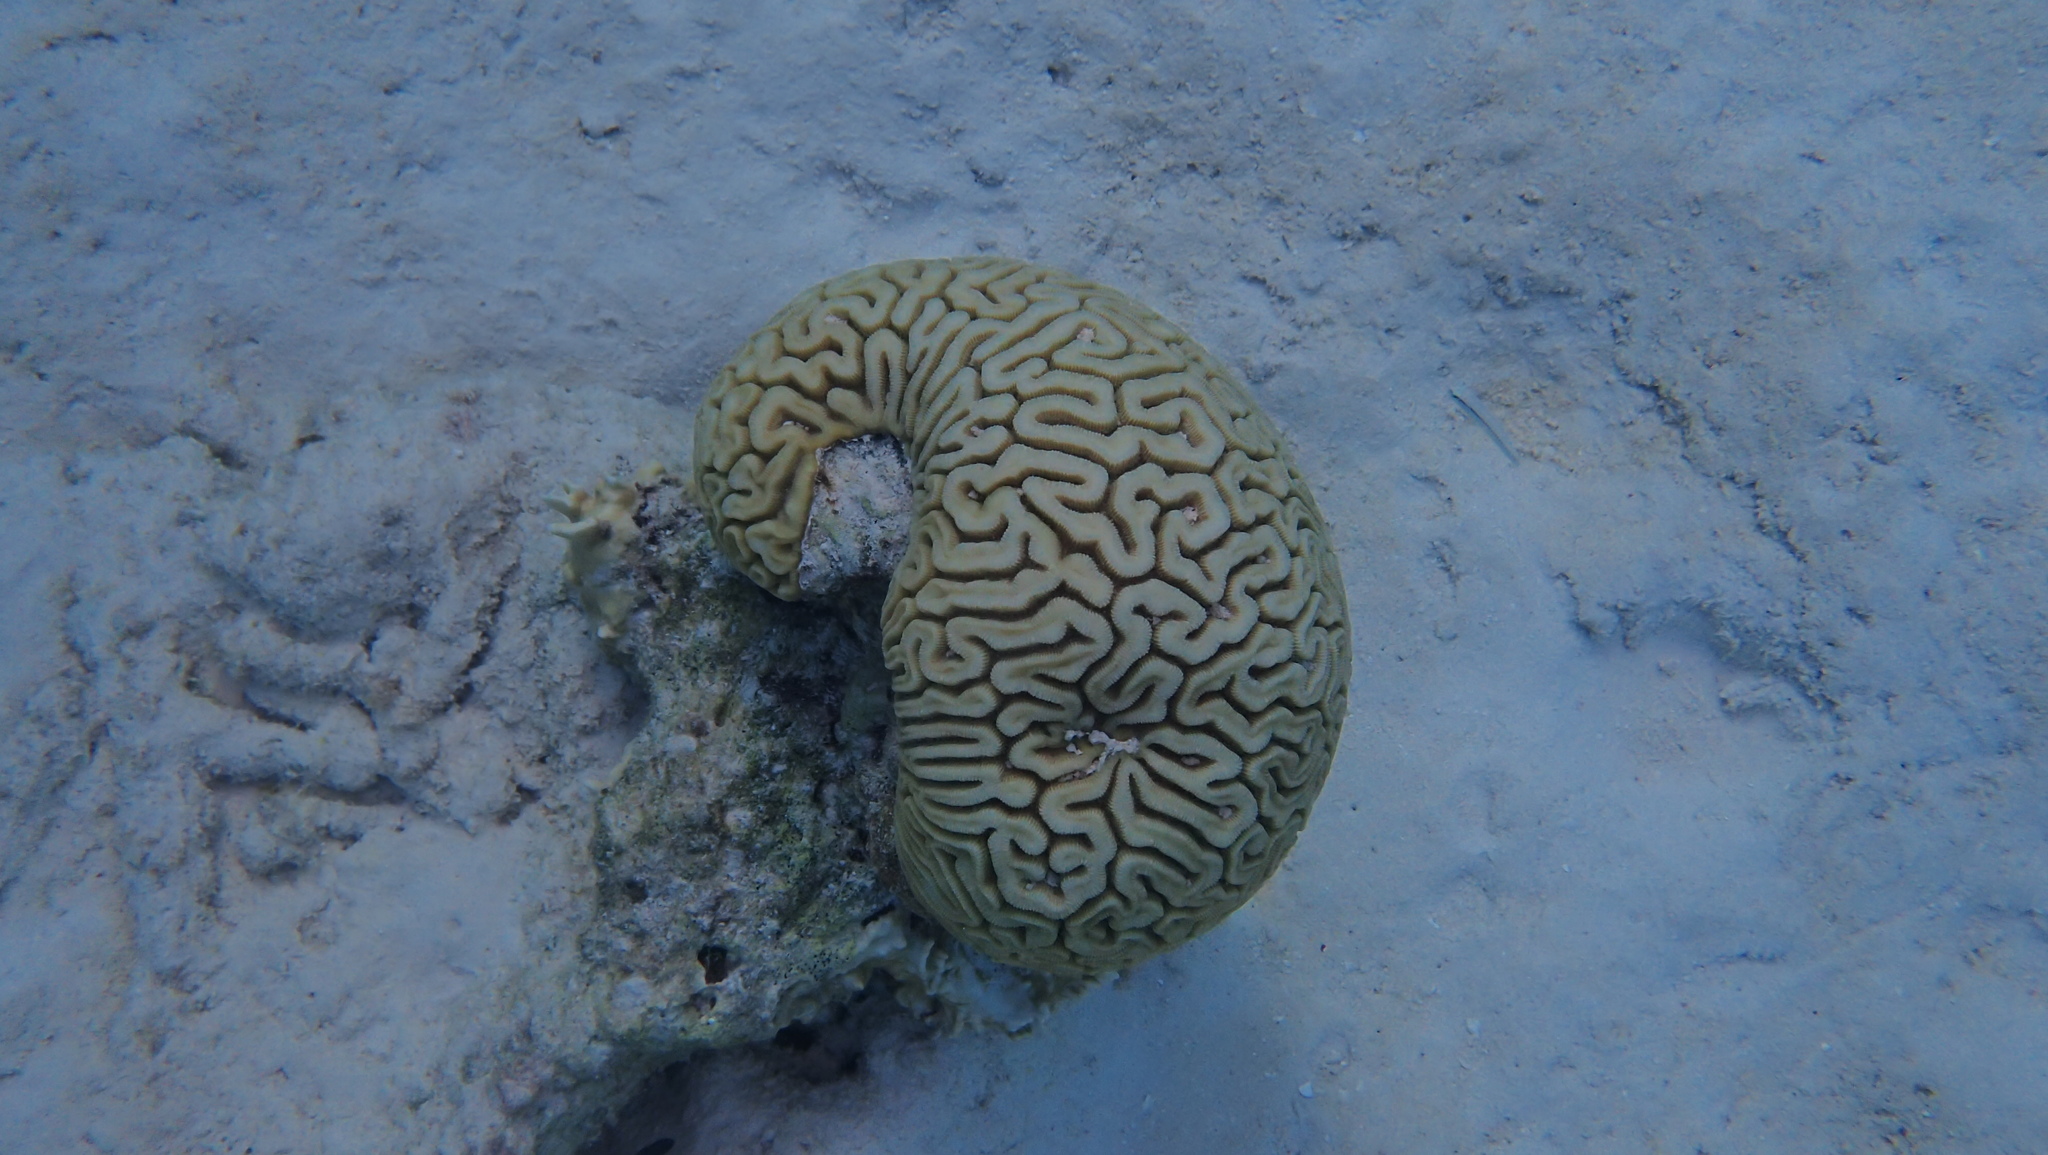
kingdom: Animalia
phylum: Cnidaria
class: Anthozoa
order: Scleractinia
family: Faviidae
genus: Diploria
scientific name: Diploria labyrinthiformis
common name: Grooved brain coral
